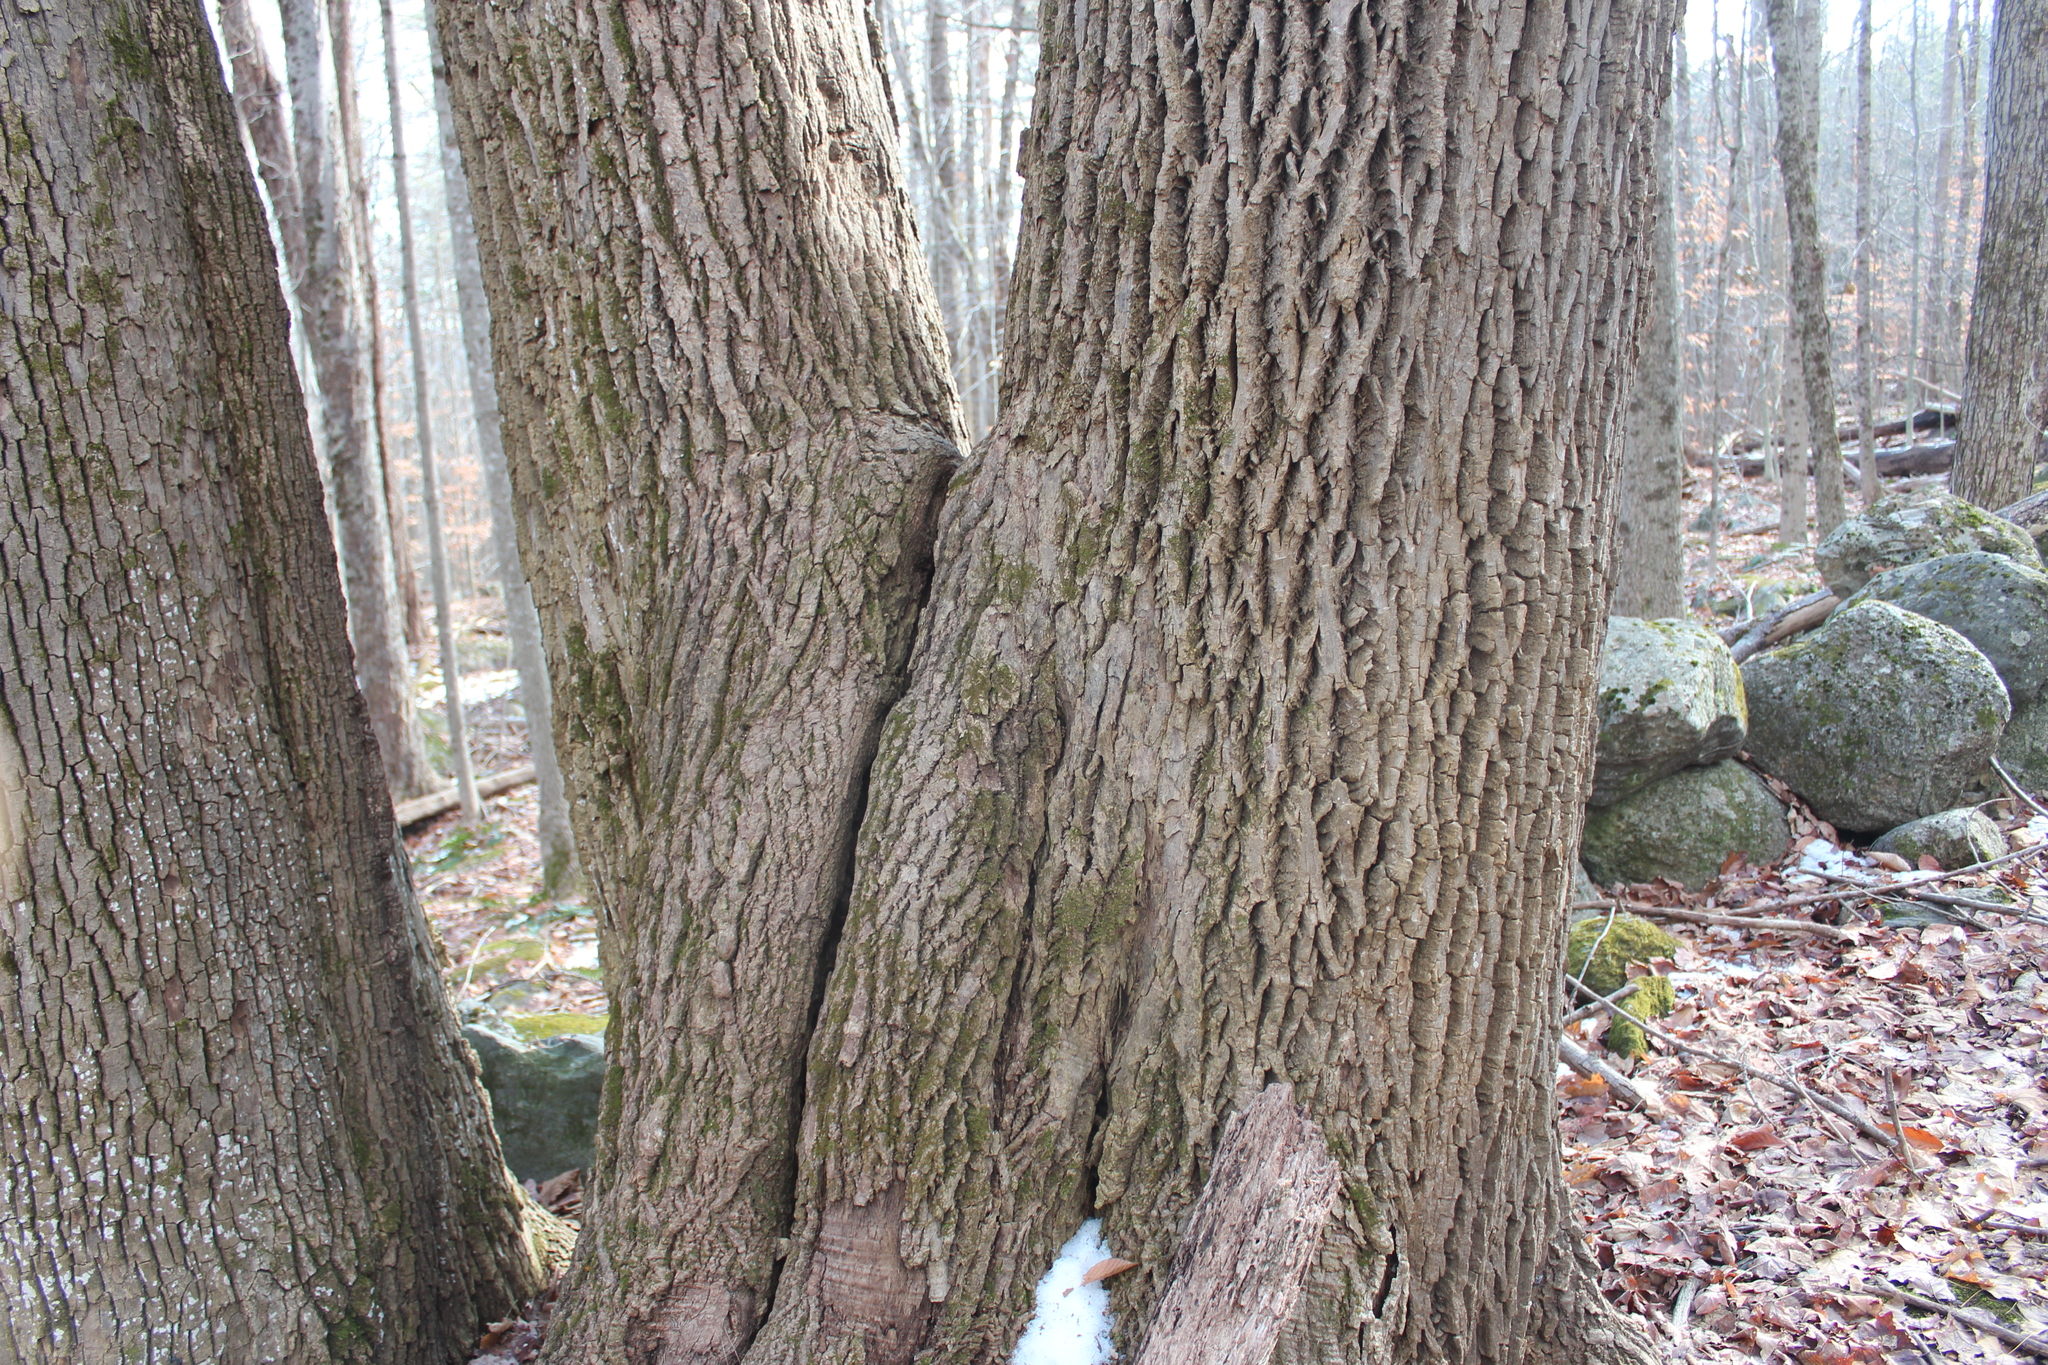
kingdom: Plantae
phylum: Tracheophyta
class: Magnoliopsida
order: Lamiales
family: Oleaceae
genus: Fraxinus
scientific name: Fraxinus americana
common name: White ash
